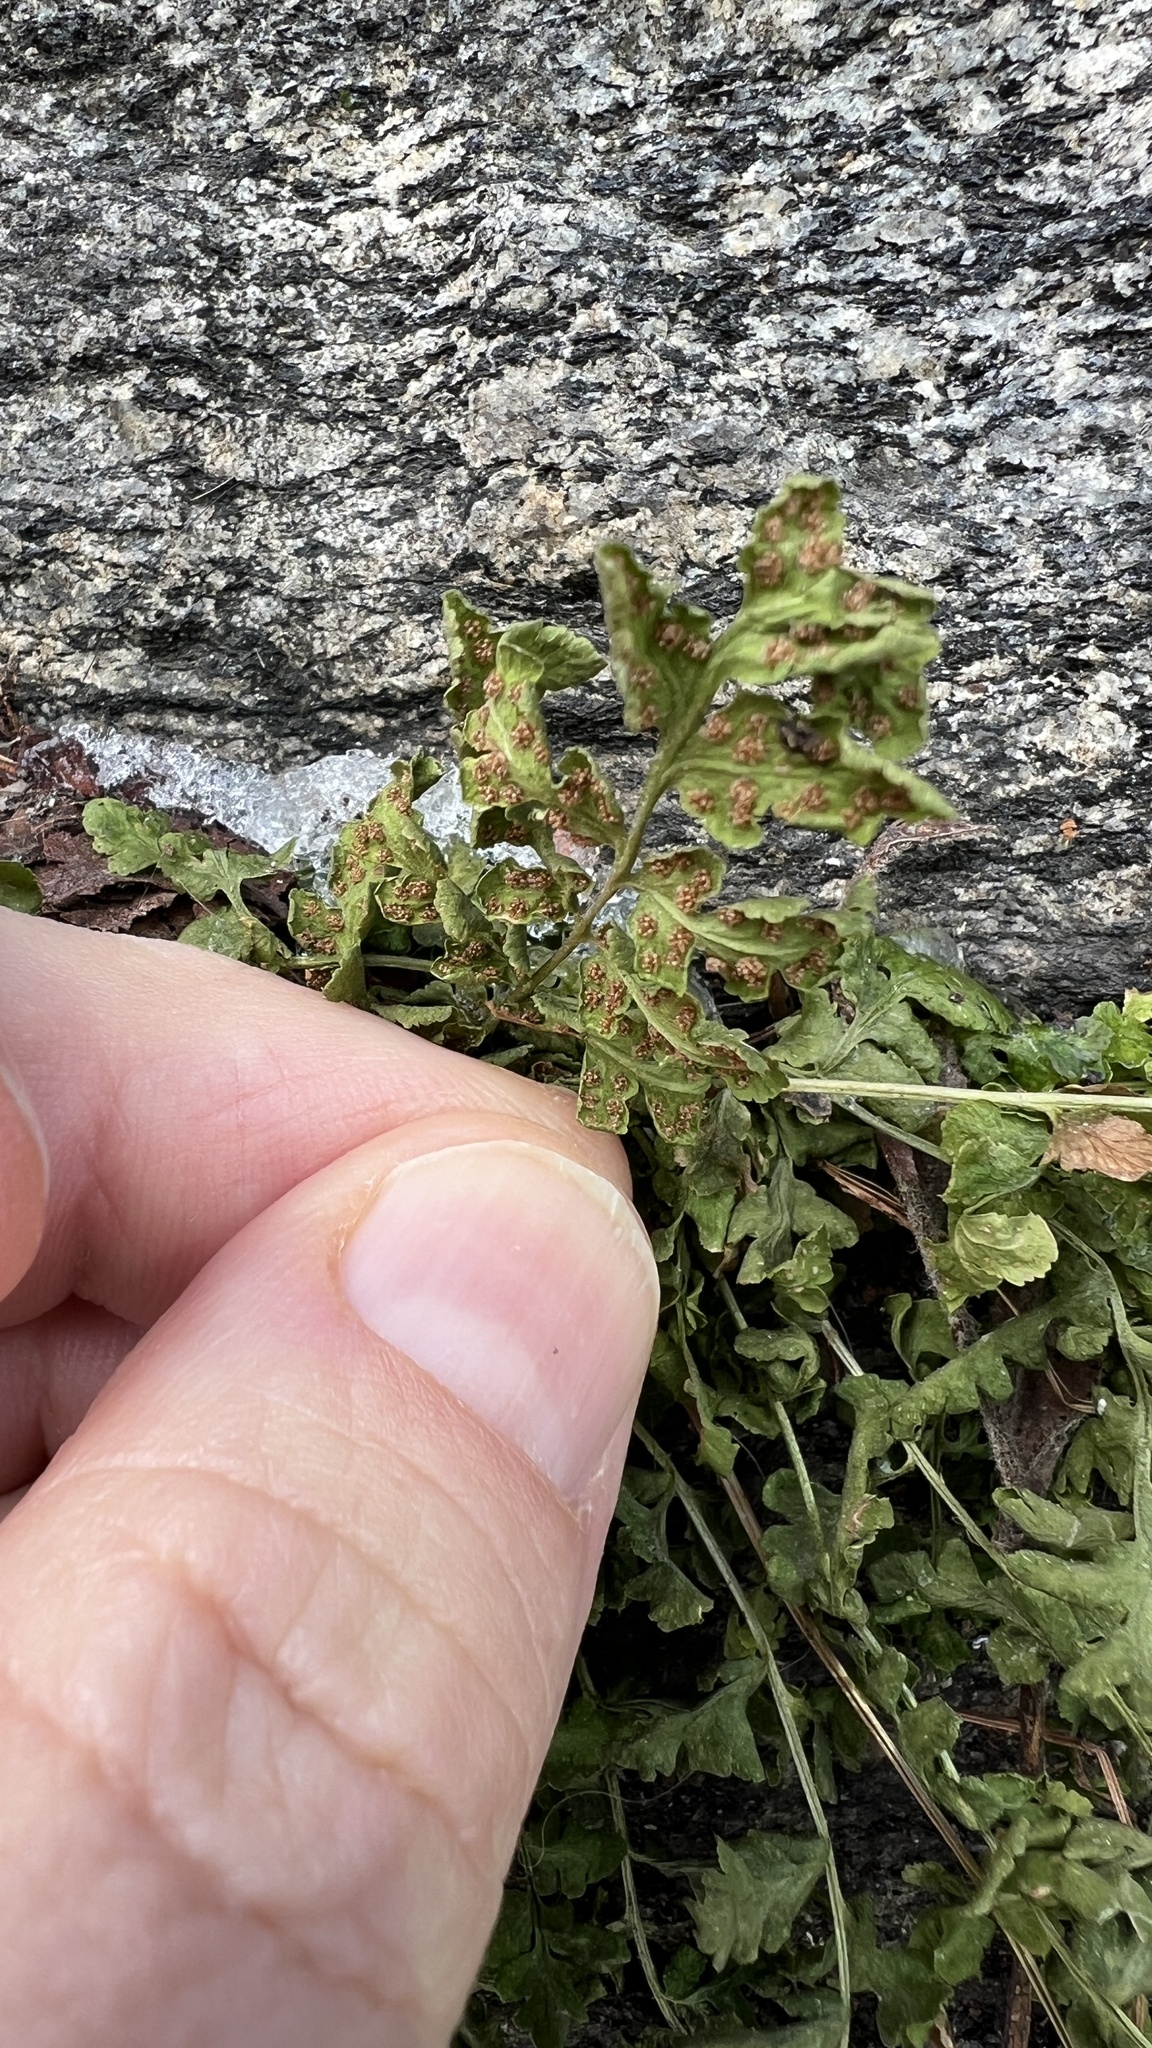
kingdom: Plantae
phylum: Tracheophyta
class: Polypodiopsida
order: Polypodiales
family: Woodsiaceae
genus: Physematium
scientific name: Physematium obtusum
